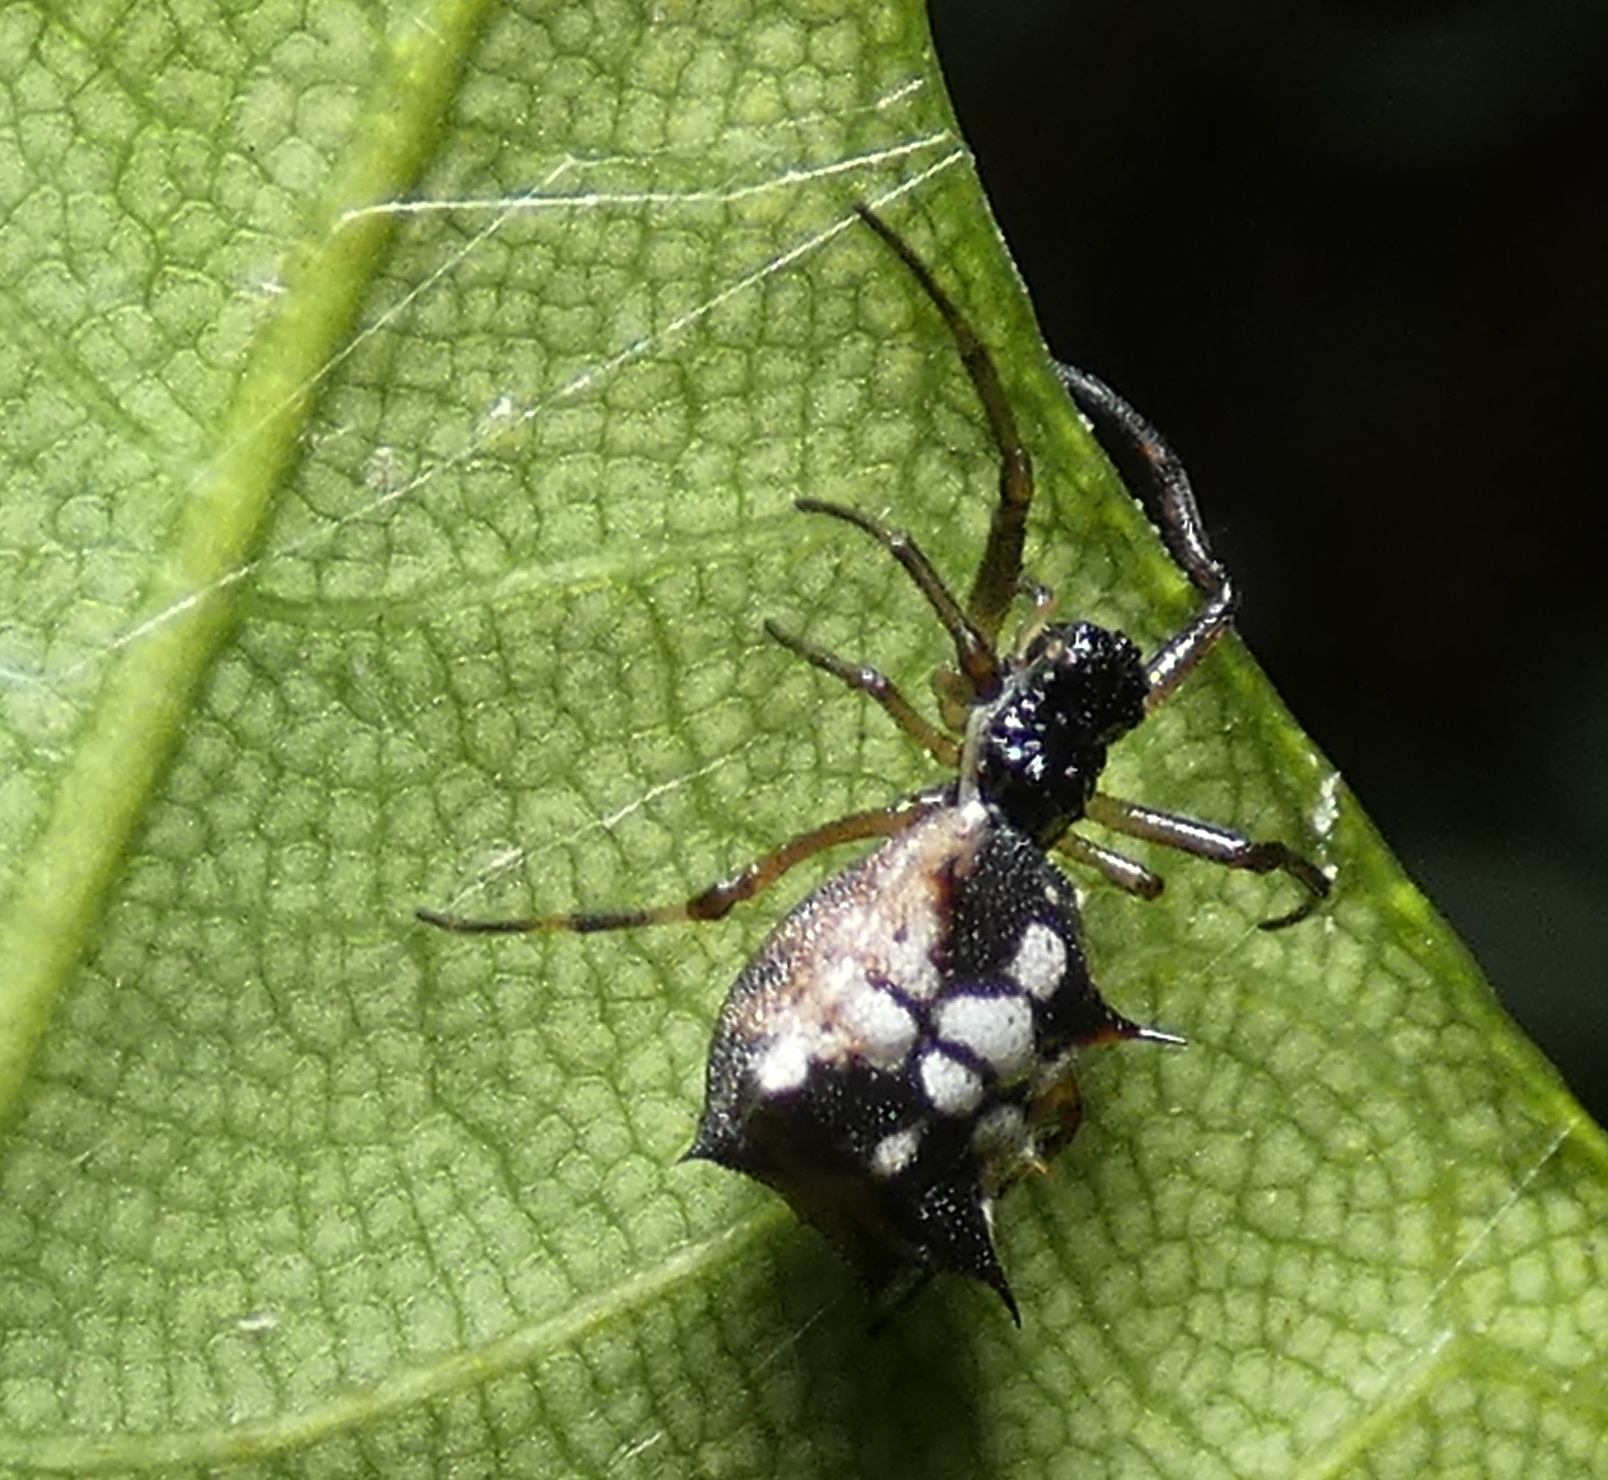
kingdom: Animalia
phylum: Arthropoda
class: Arachnida
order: Araneae
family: Araneidae
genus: Micrathena
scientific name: Micrathena picta
